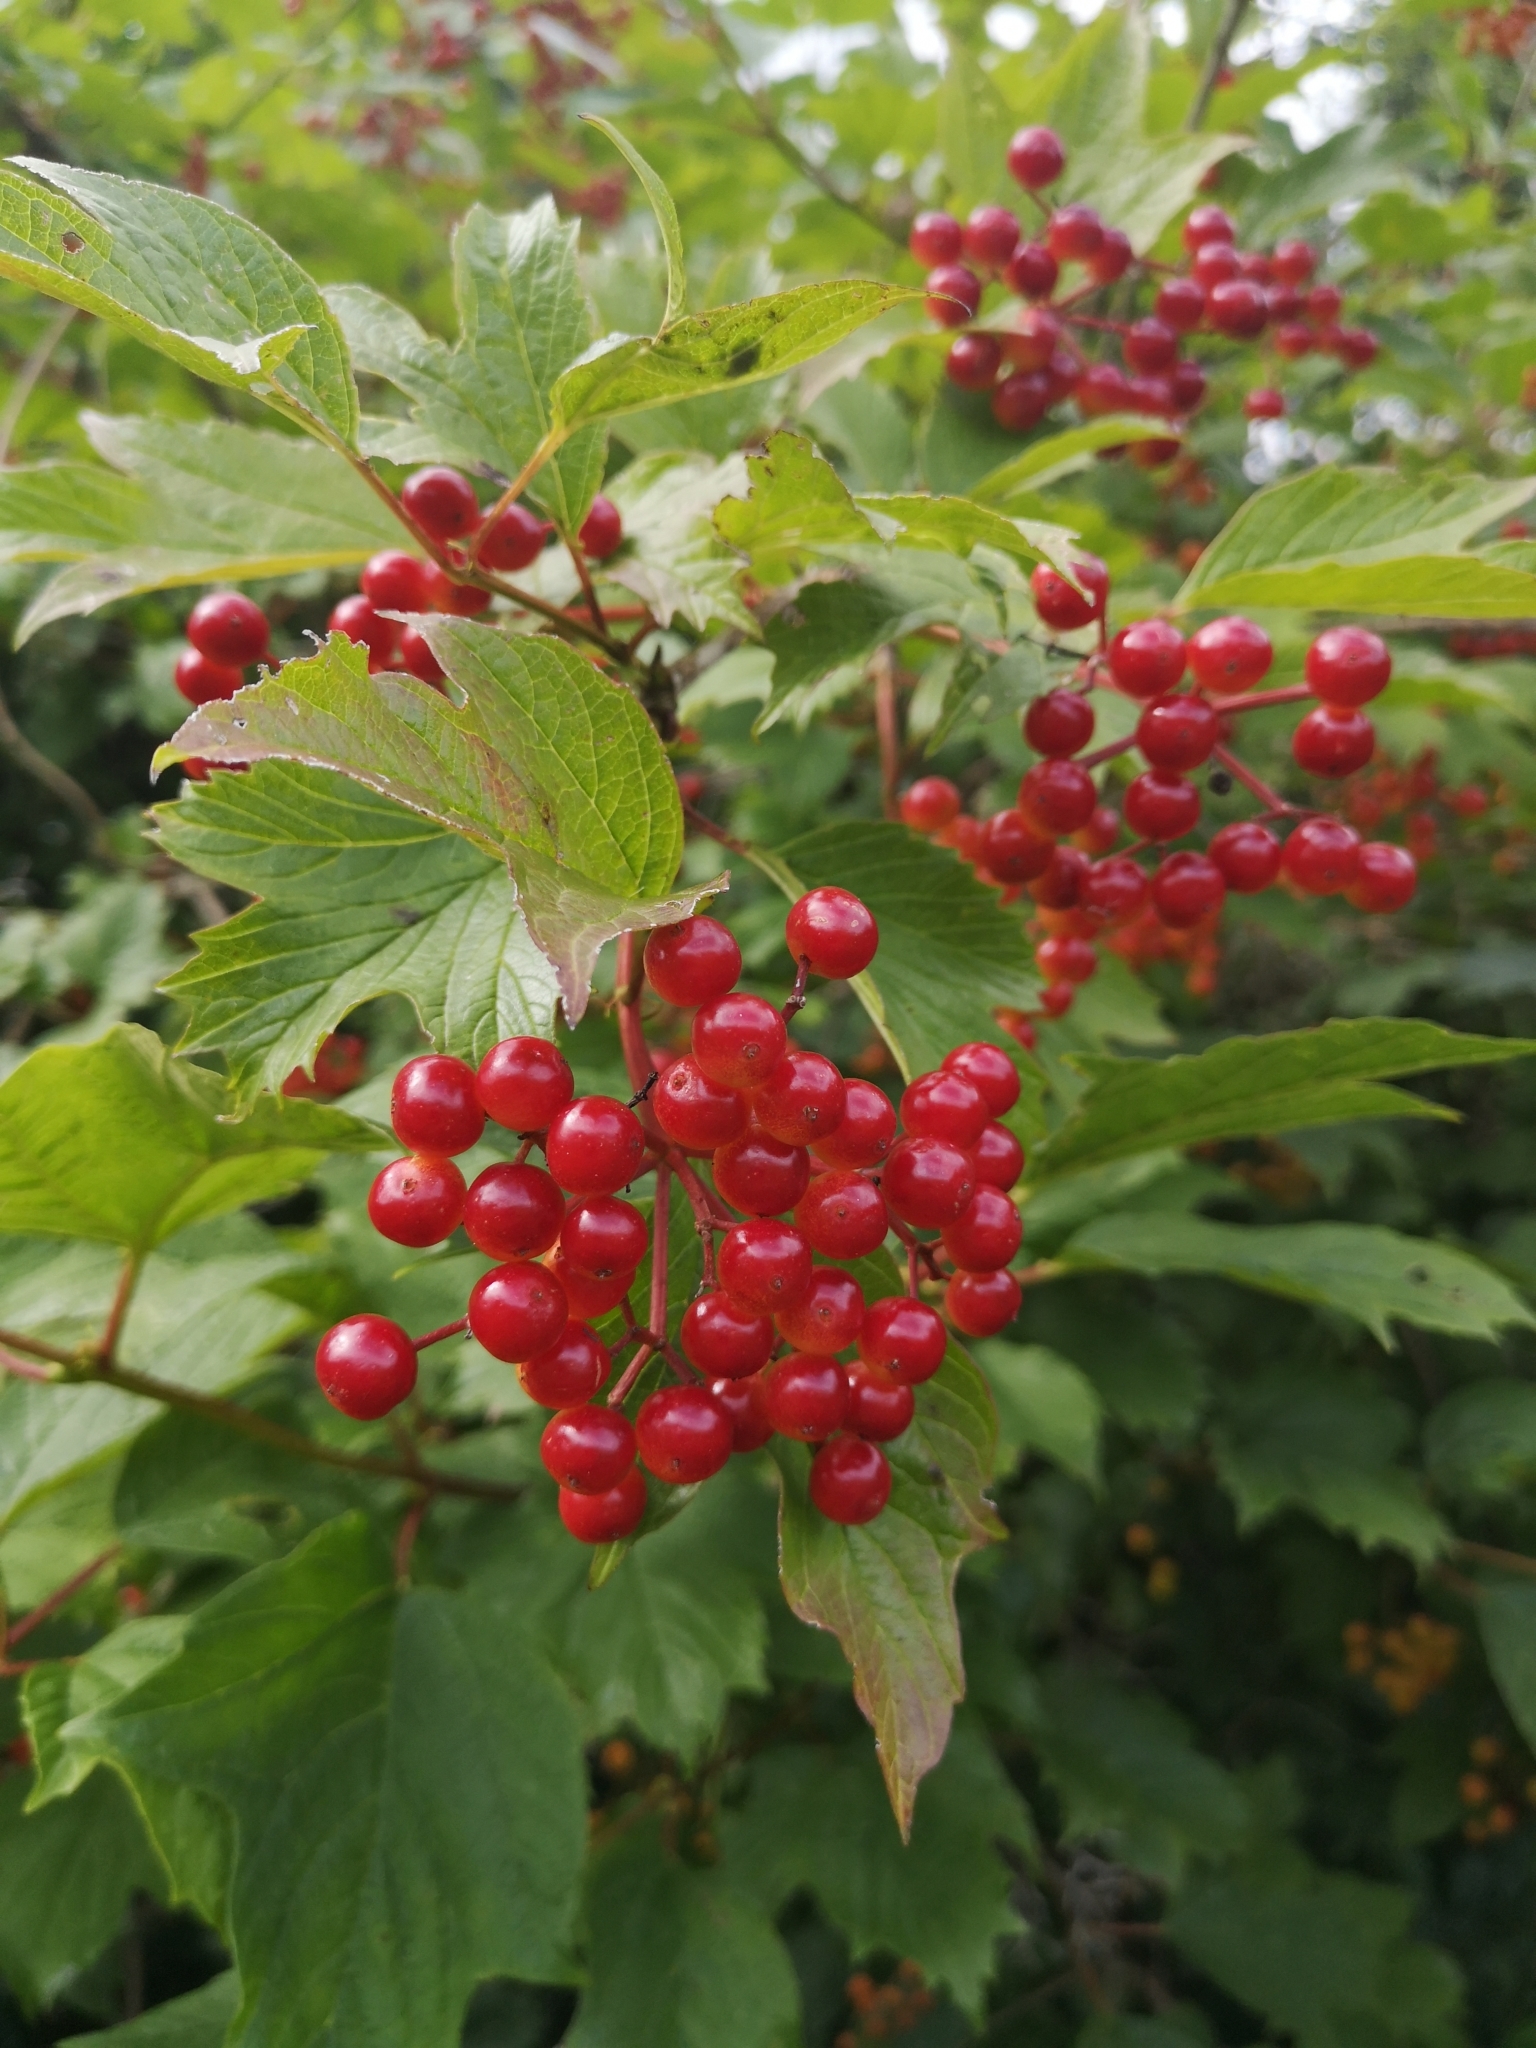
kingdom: Plantae
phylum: Tracheophyta
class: Magnoliopsida
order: Dipsacales
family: Viburnaceae
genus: Viburnum
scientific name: Viburnum opulus
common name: Guelder-rose
